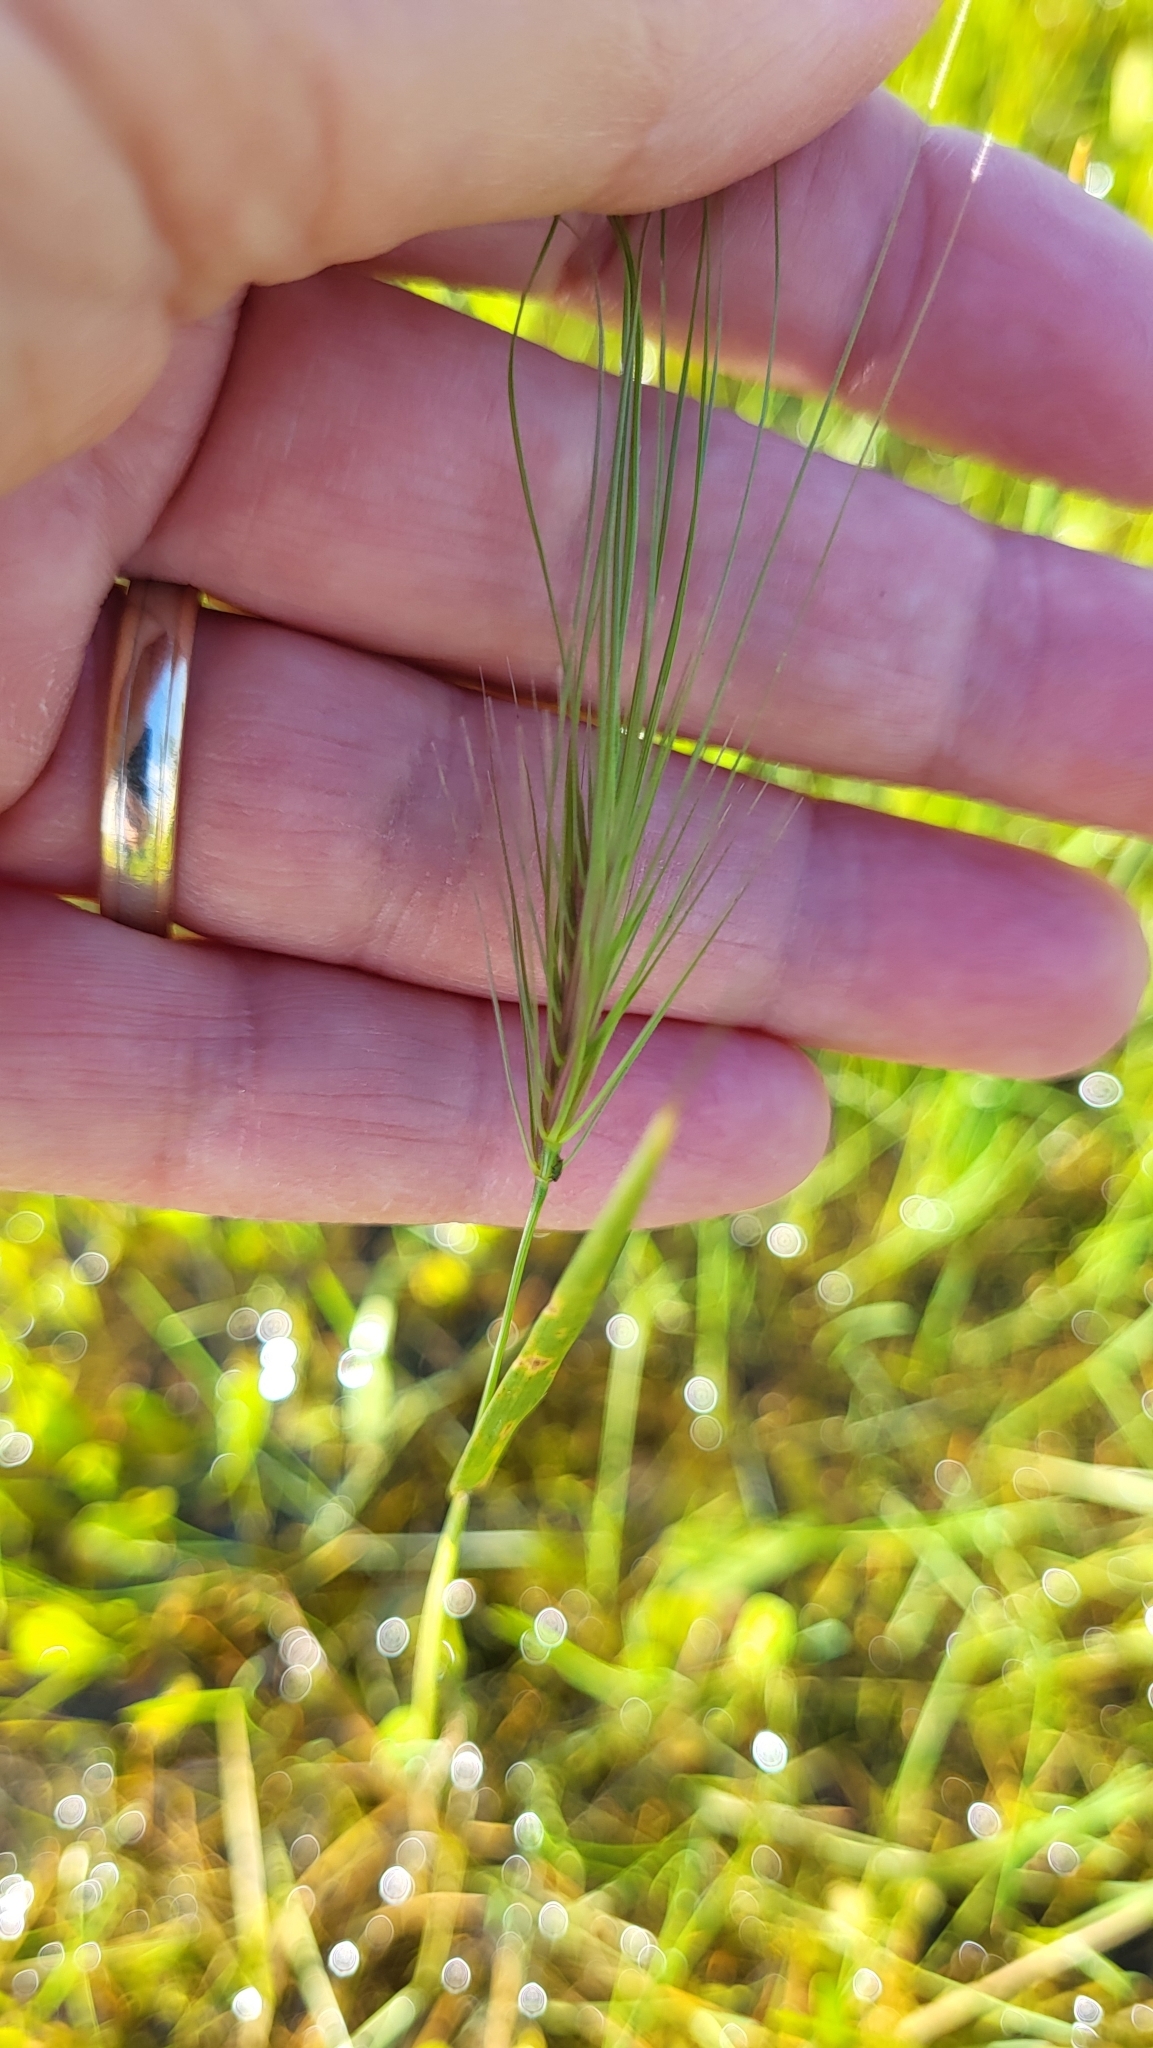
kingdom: Plantae
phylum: Tracheophyta
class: Liliopsida
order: Poales
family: Poaceae
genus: Taeniatherum
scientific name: Taeniatherum caput-medusae
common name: Medusahead
